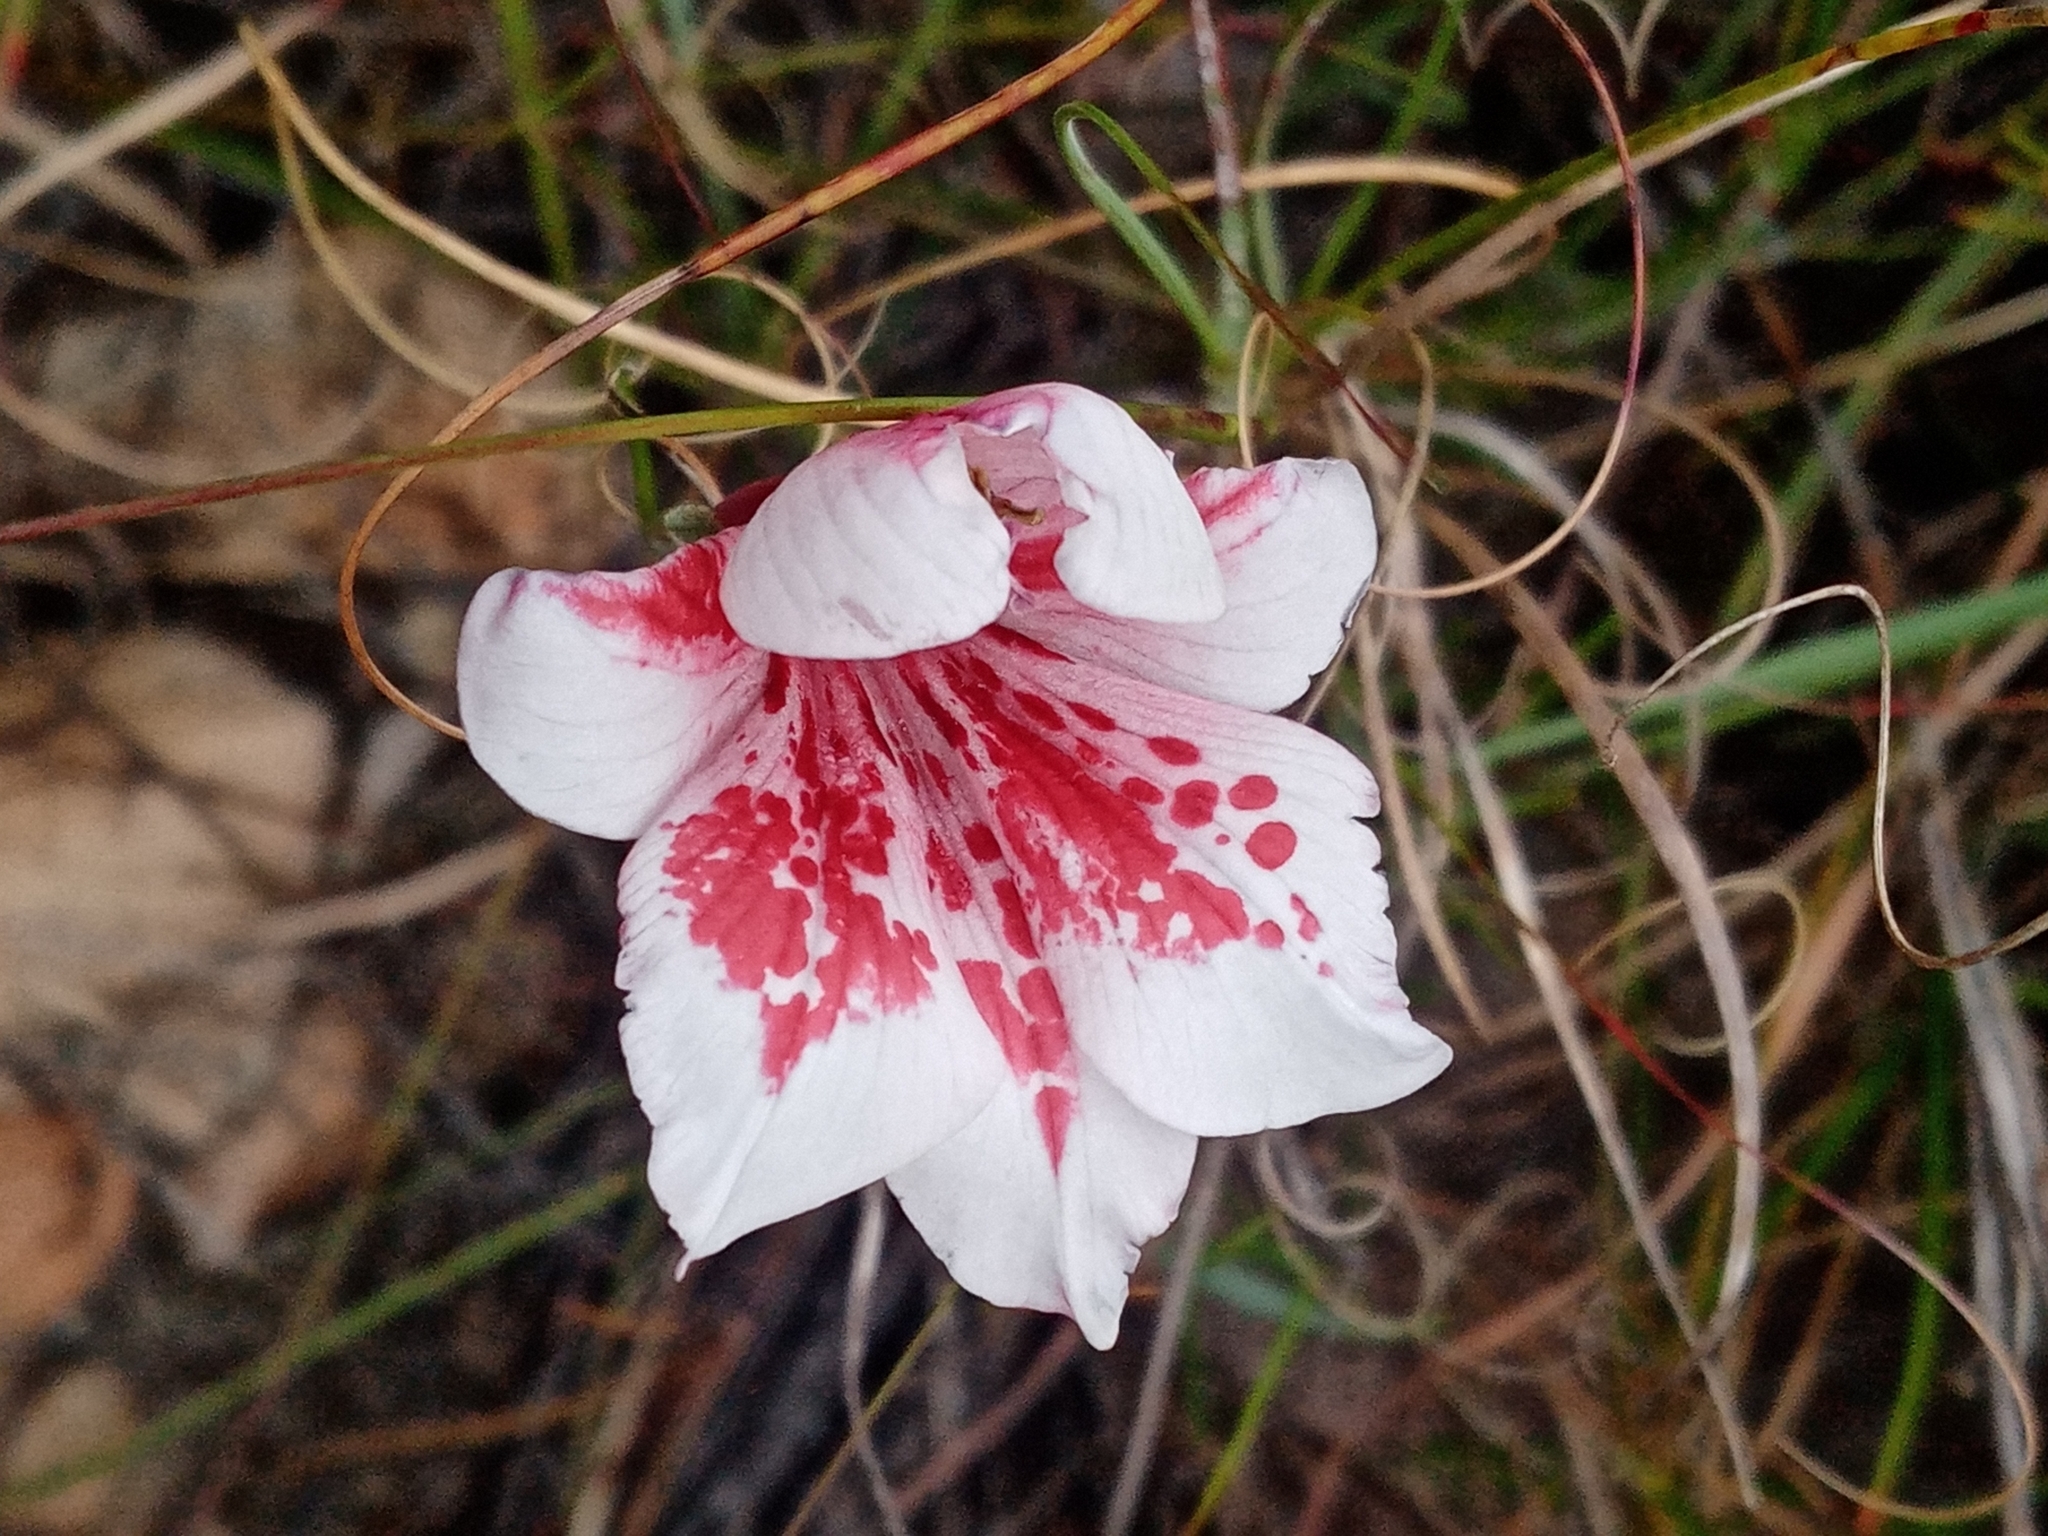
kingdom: Plantae
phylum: Tracheophyta
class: Liliopsida
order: Asparagales
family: Iridaceae
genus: Gladiolus
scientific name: Gladiolus variegatus
